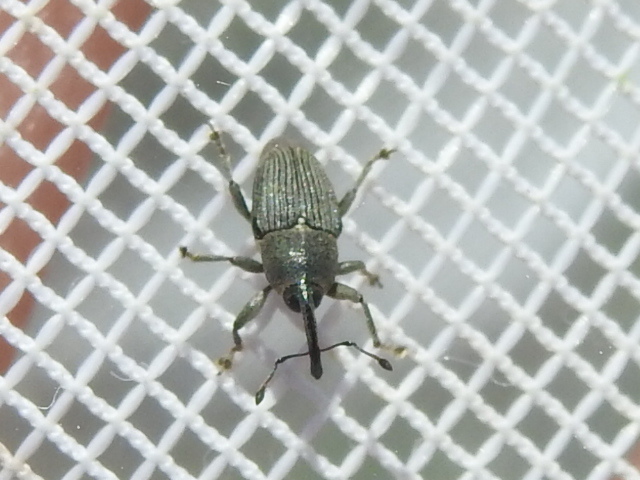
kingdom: Animalia
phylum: Arthropoda
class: Insecta
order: Coleoptera
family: Curculionidae
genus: Odontocorynus
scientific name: Odontocorynus salebrosus
